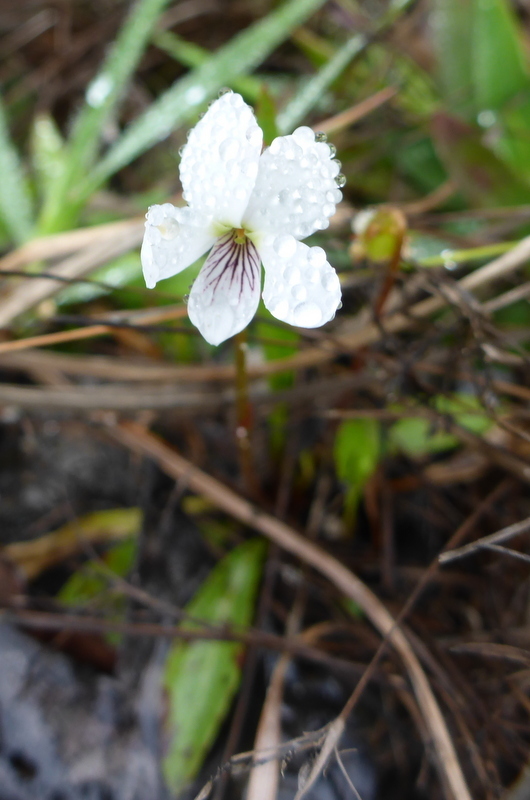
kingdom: Plantae
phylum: Tracheophyta
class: Magnoliopsida
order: Malpighiales
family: Violaceae
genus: Viola
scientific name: Viola lanceolata
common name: Bog white violet
